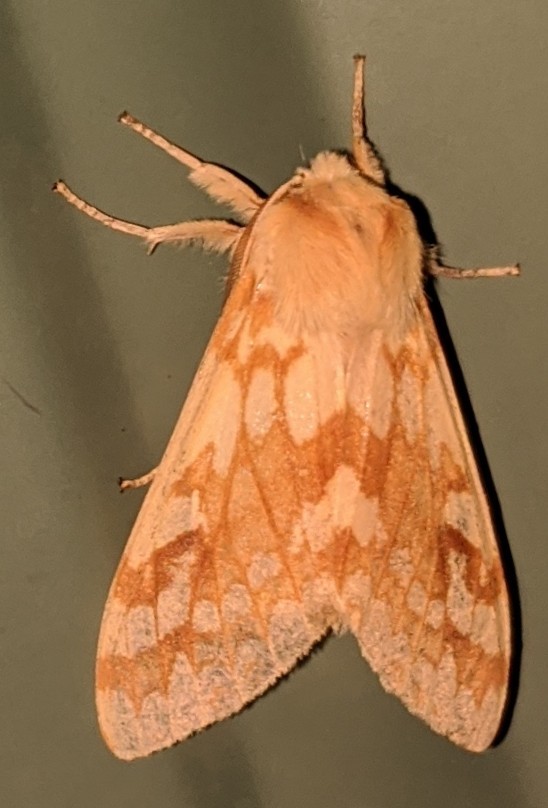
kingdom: Animalia
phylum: Arthropoda
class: Insecta
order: Lepidoptera
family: Erebidae
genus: Lophocampa
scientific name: Lophocampa maculata
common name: Spotted tussock moth
